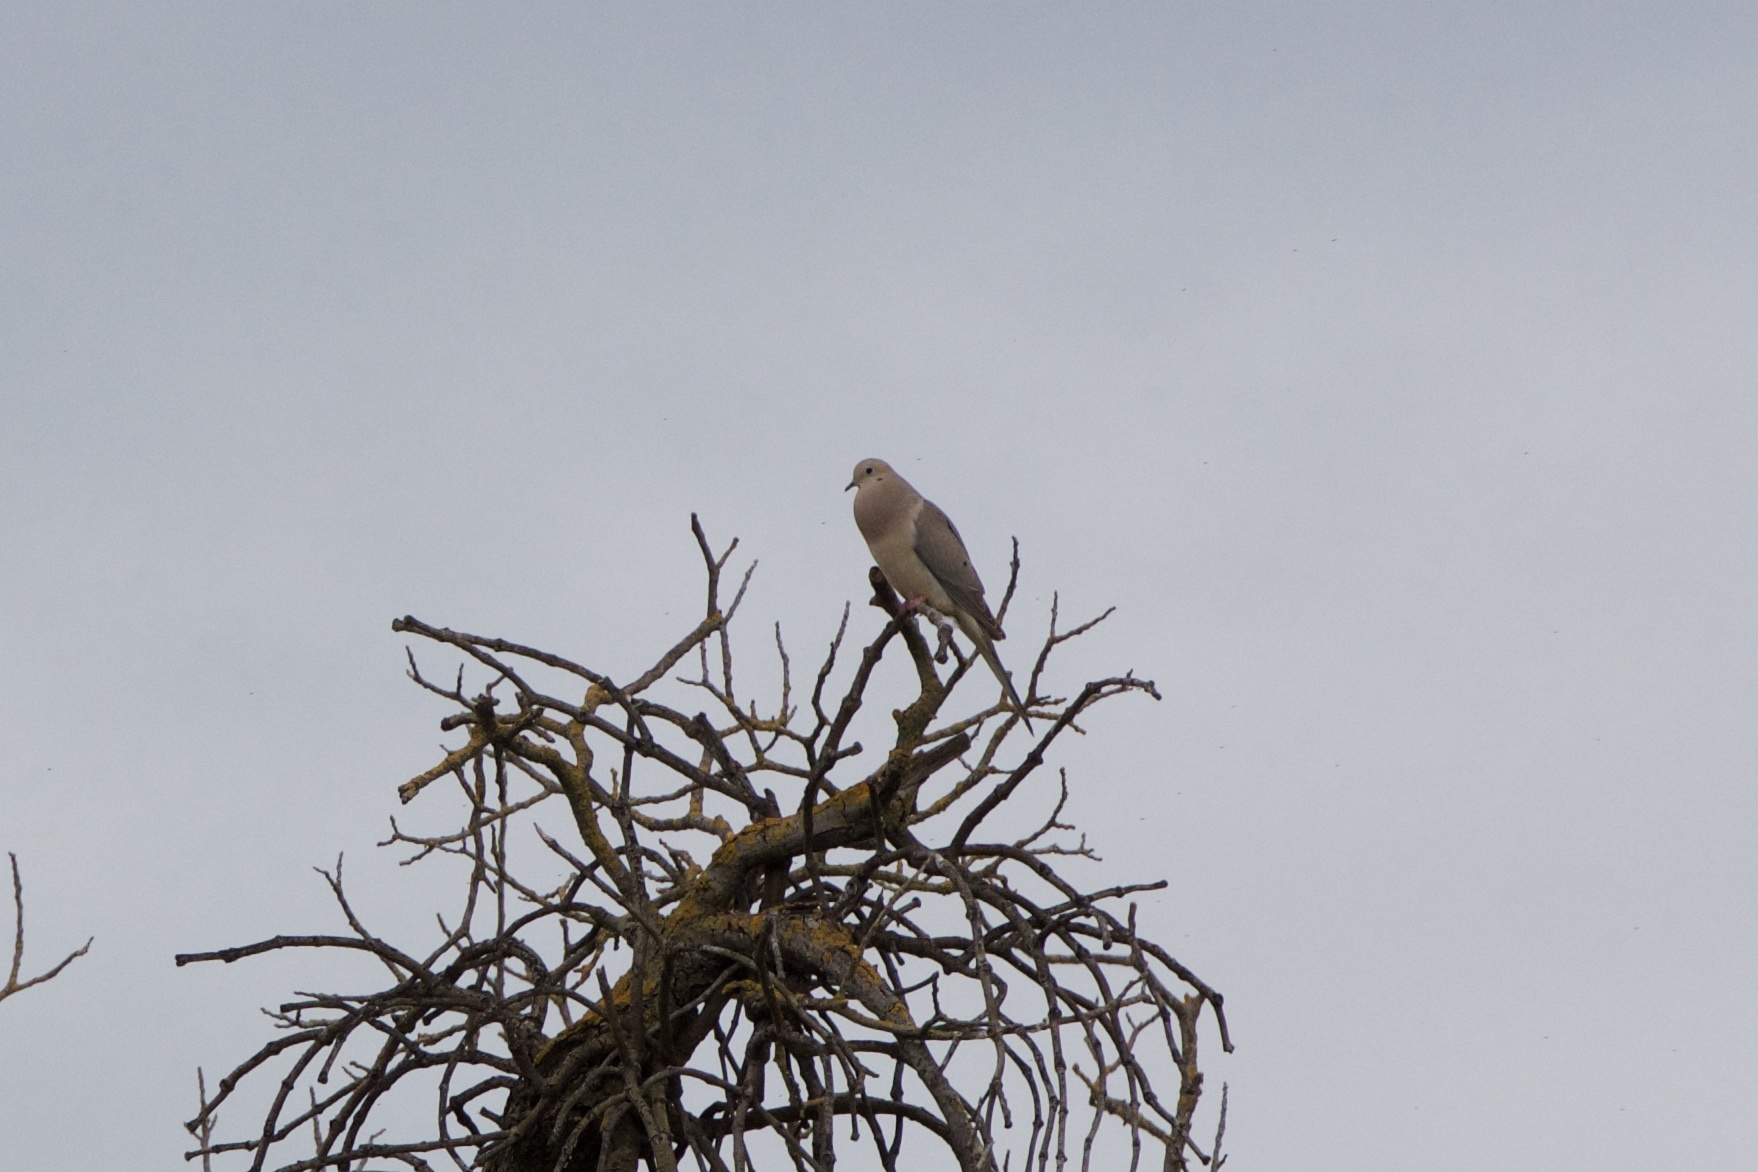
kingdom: Animalia
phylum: Chordata
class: Aves
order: Columbiformes
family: Columbidae
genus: Zenaida
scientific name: Zenaida macroura
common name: Mourning dove
